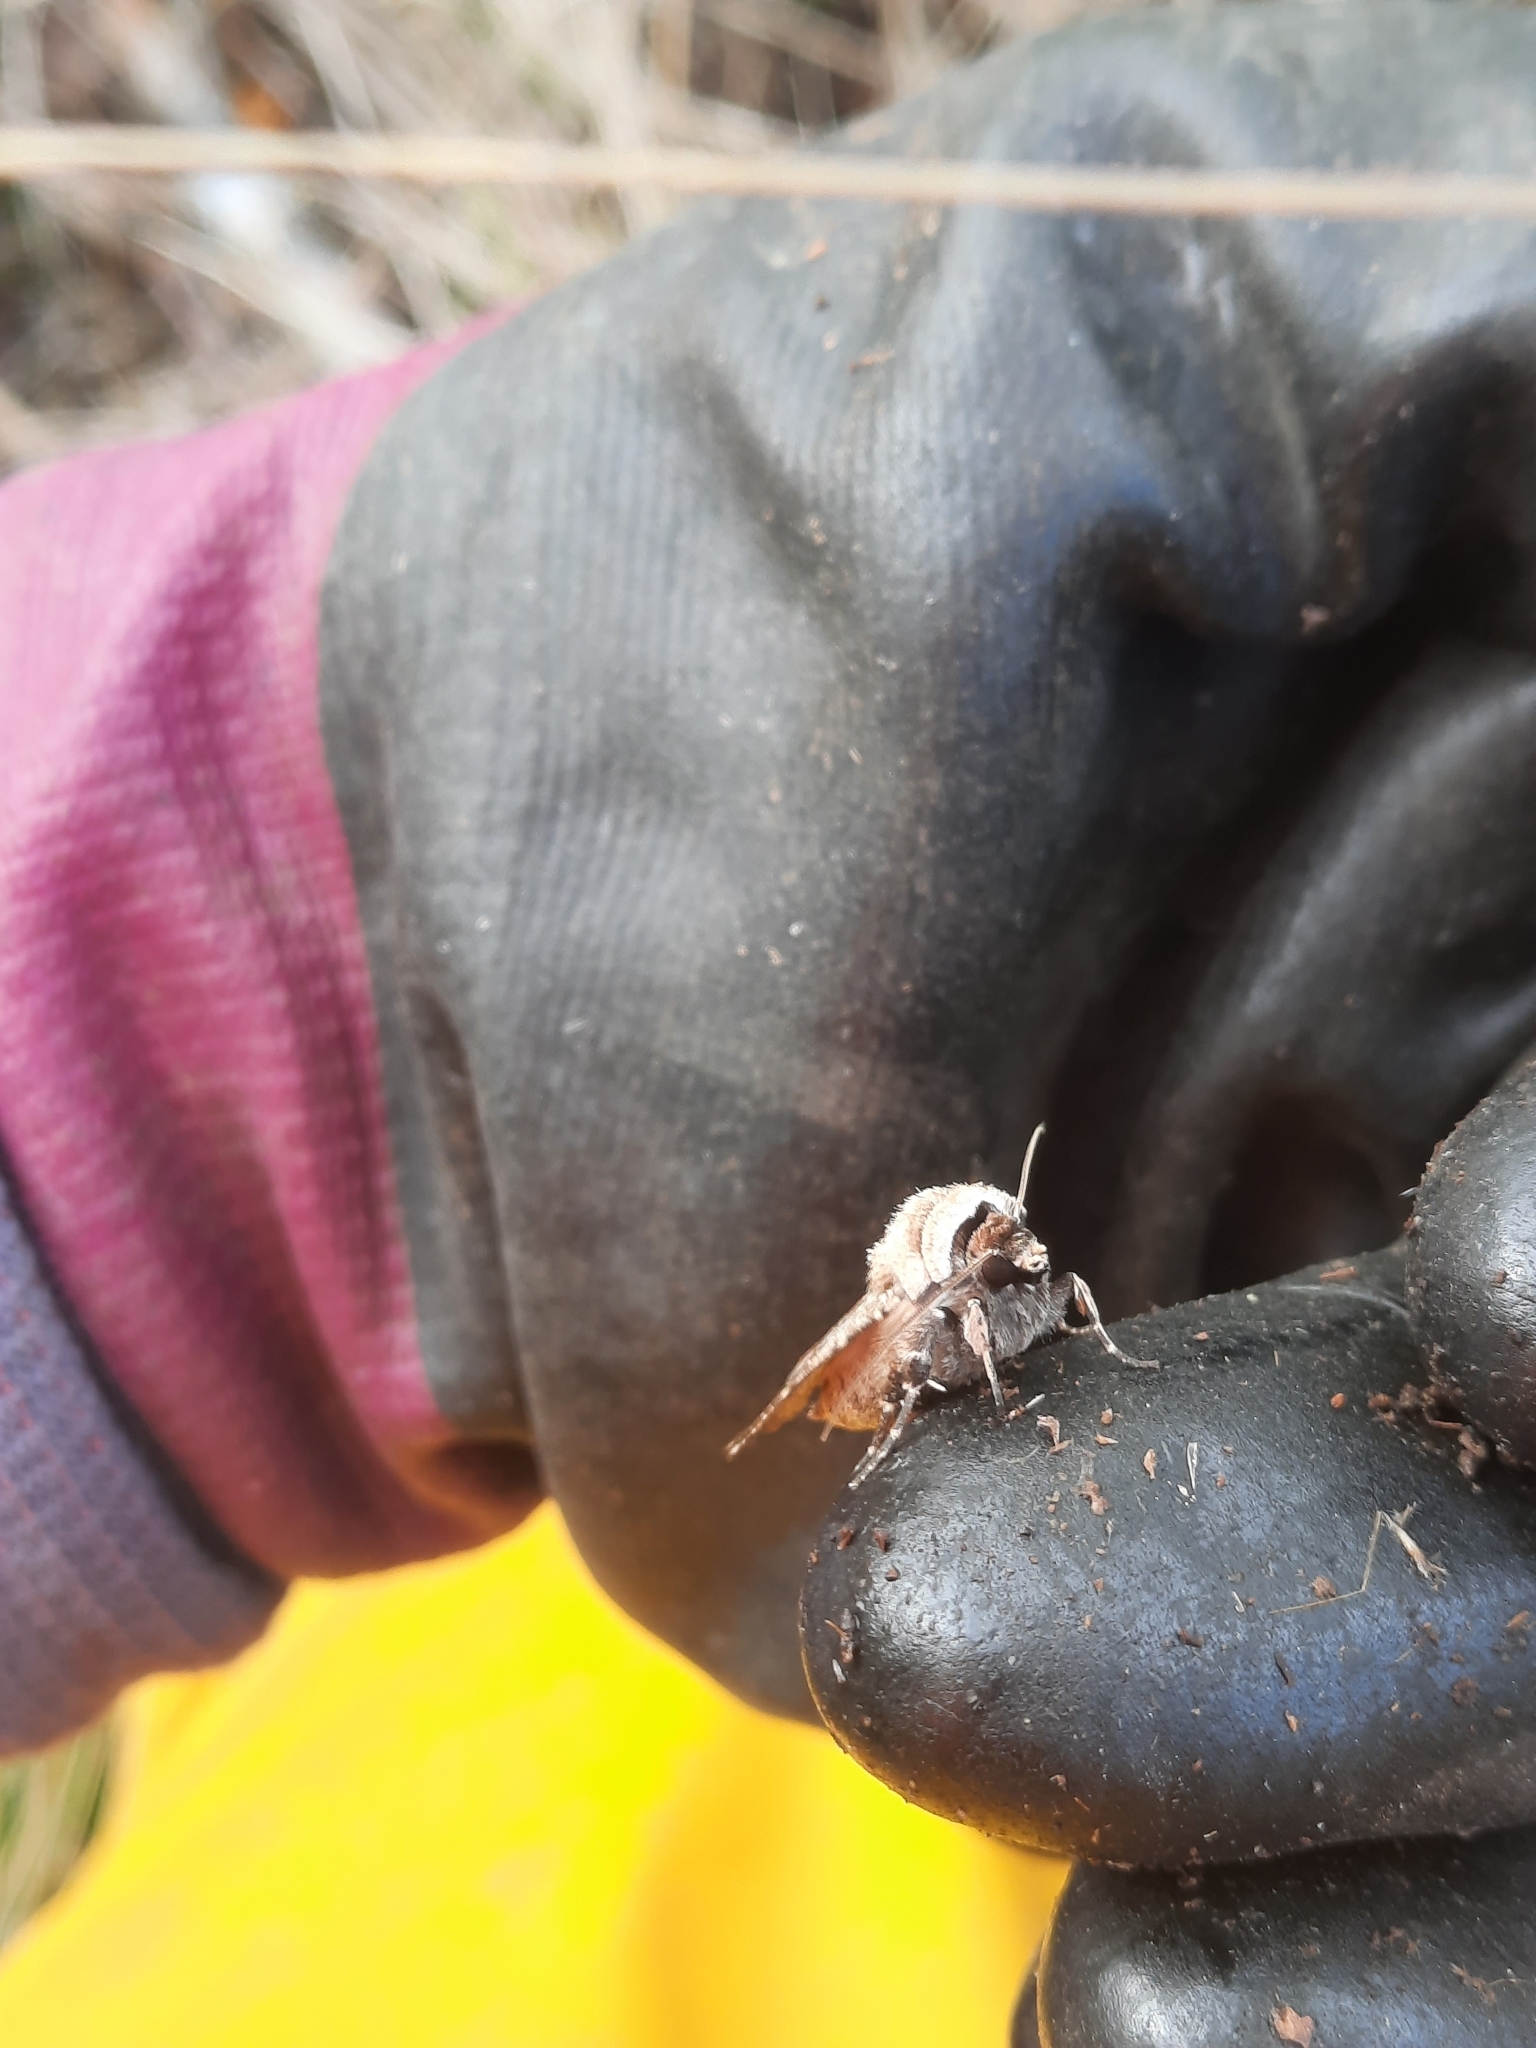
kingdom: Animalia
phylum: Arthropoda
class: Insecta
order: Lepidoptera
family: Noctuidae
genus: Proteuxoa
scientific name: Proteuxoa tetronycha
